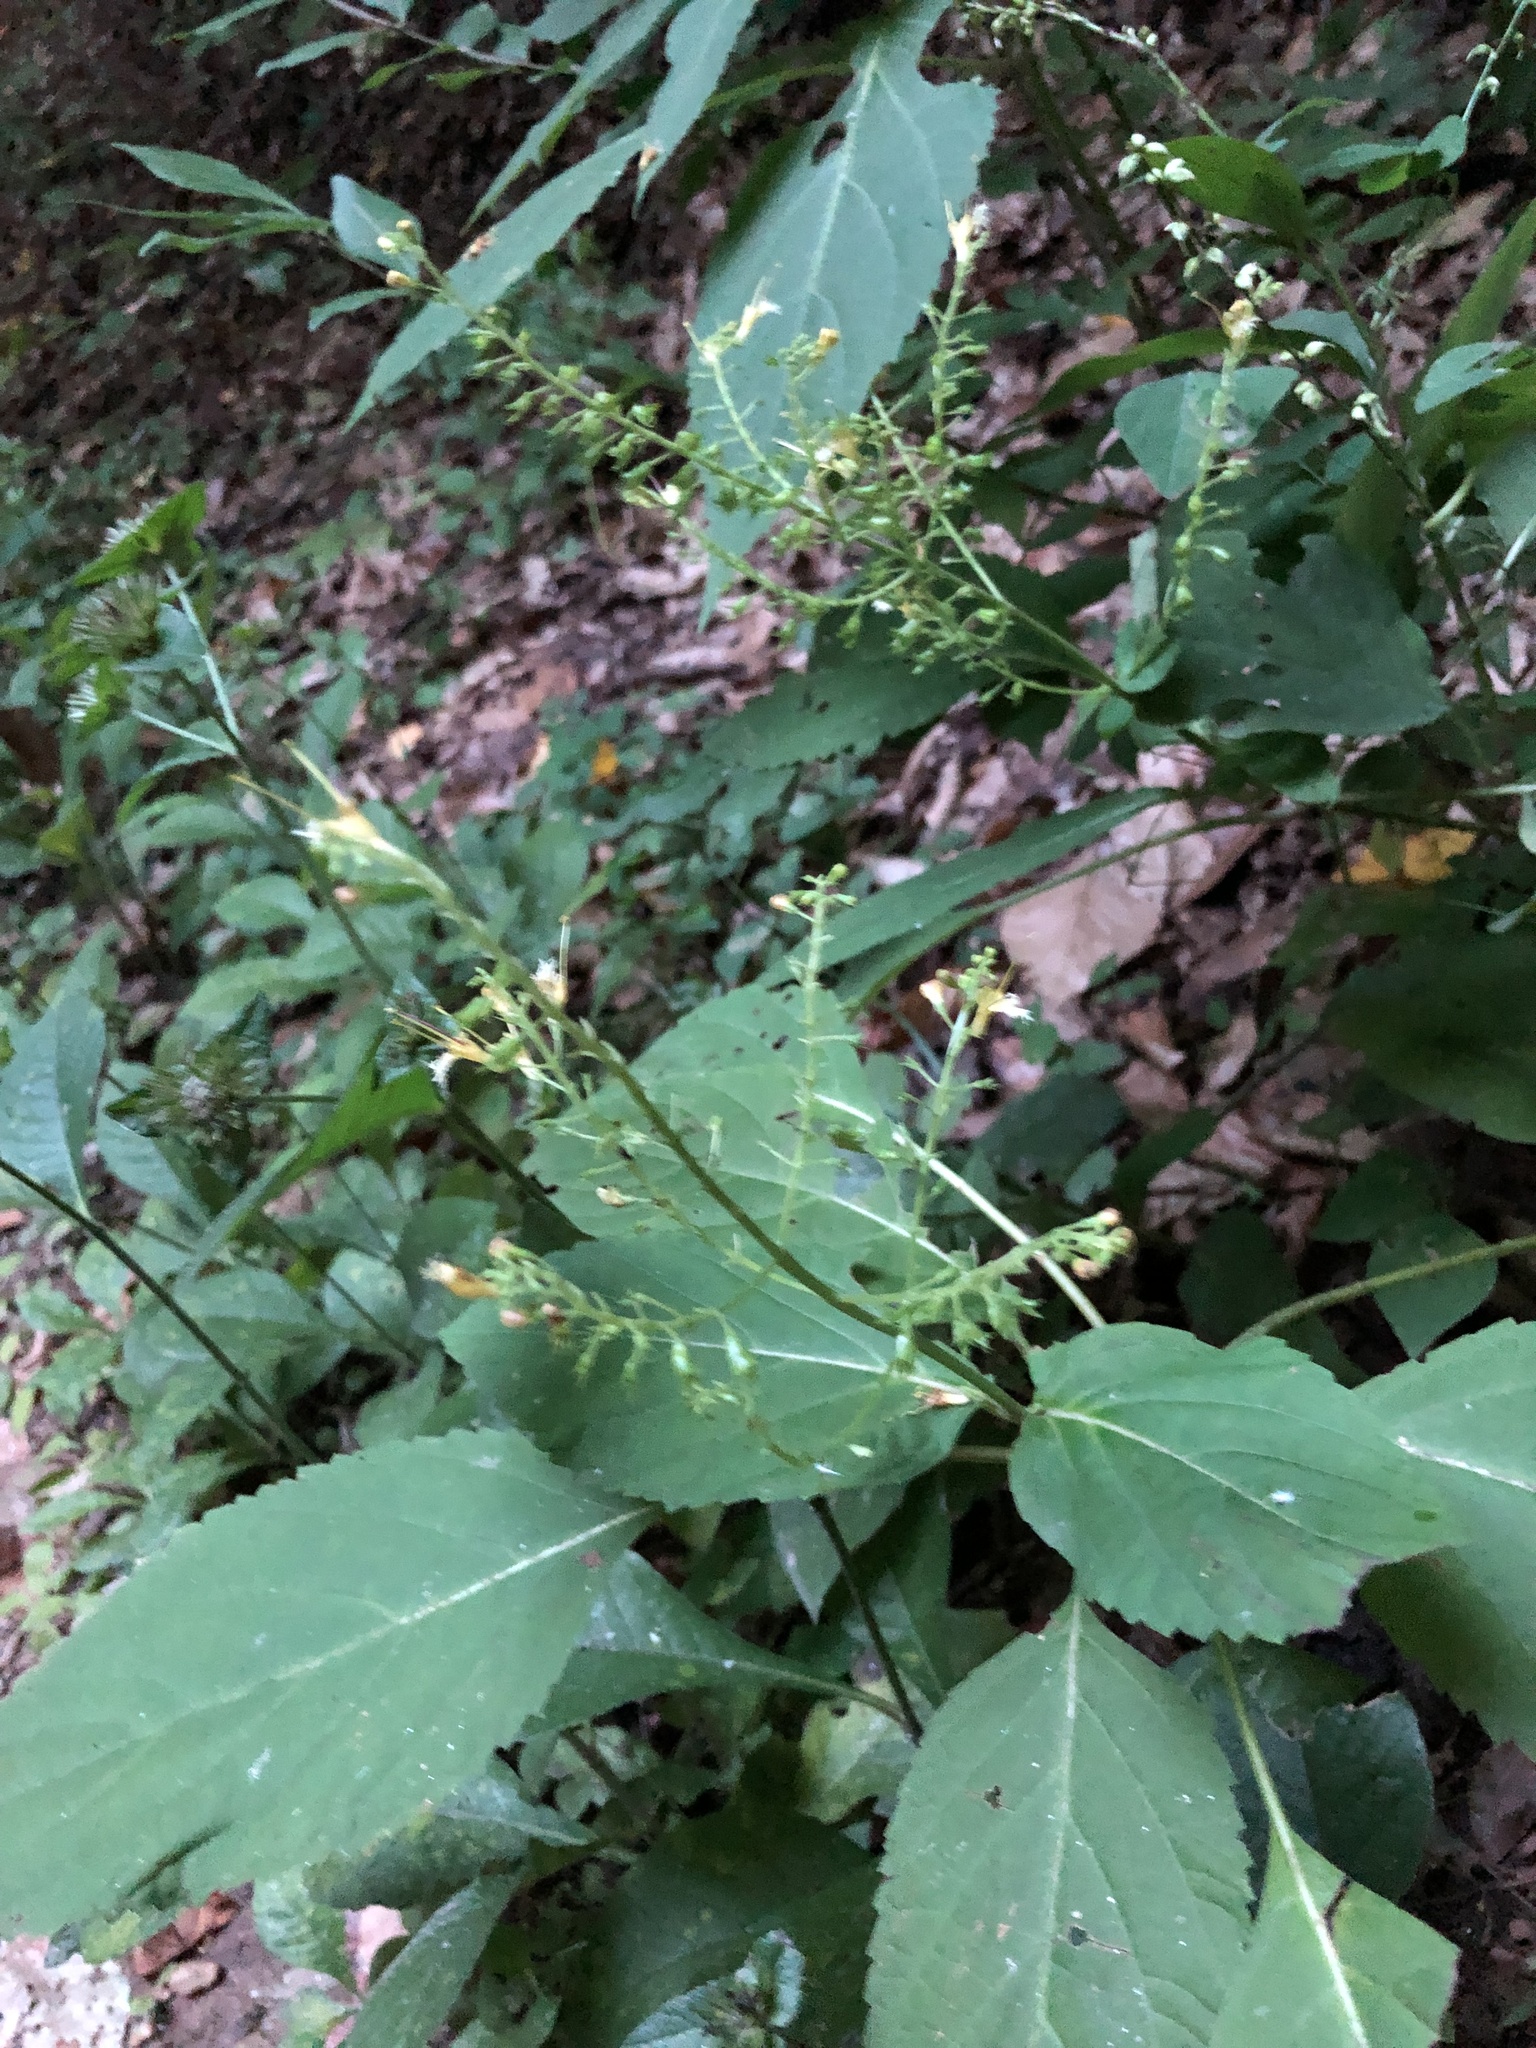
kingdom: Plantae
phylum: Tracheophyta
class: Magnoliopsida
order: Lamiales
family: Lamiaceae
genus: Collinsonia
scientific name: Collinsonia canadensis
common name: Northern horsebalm
